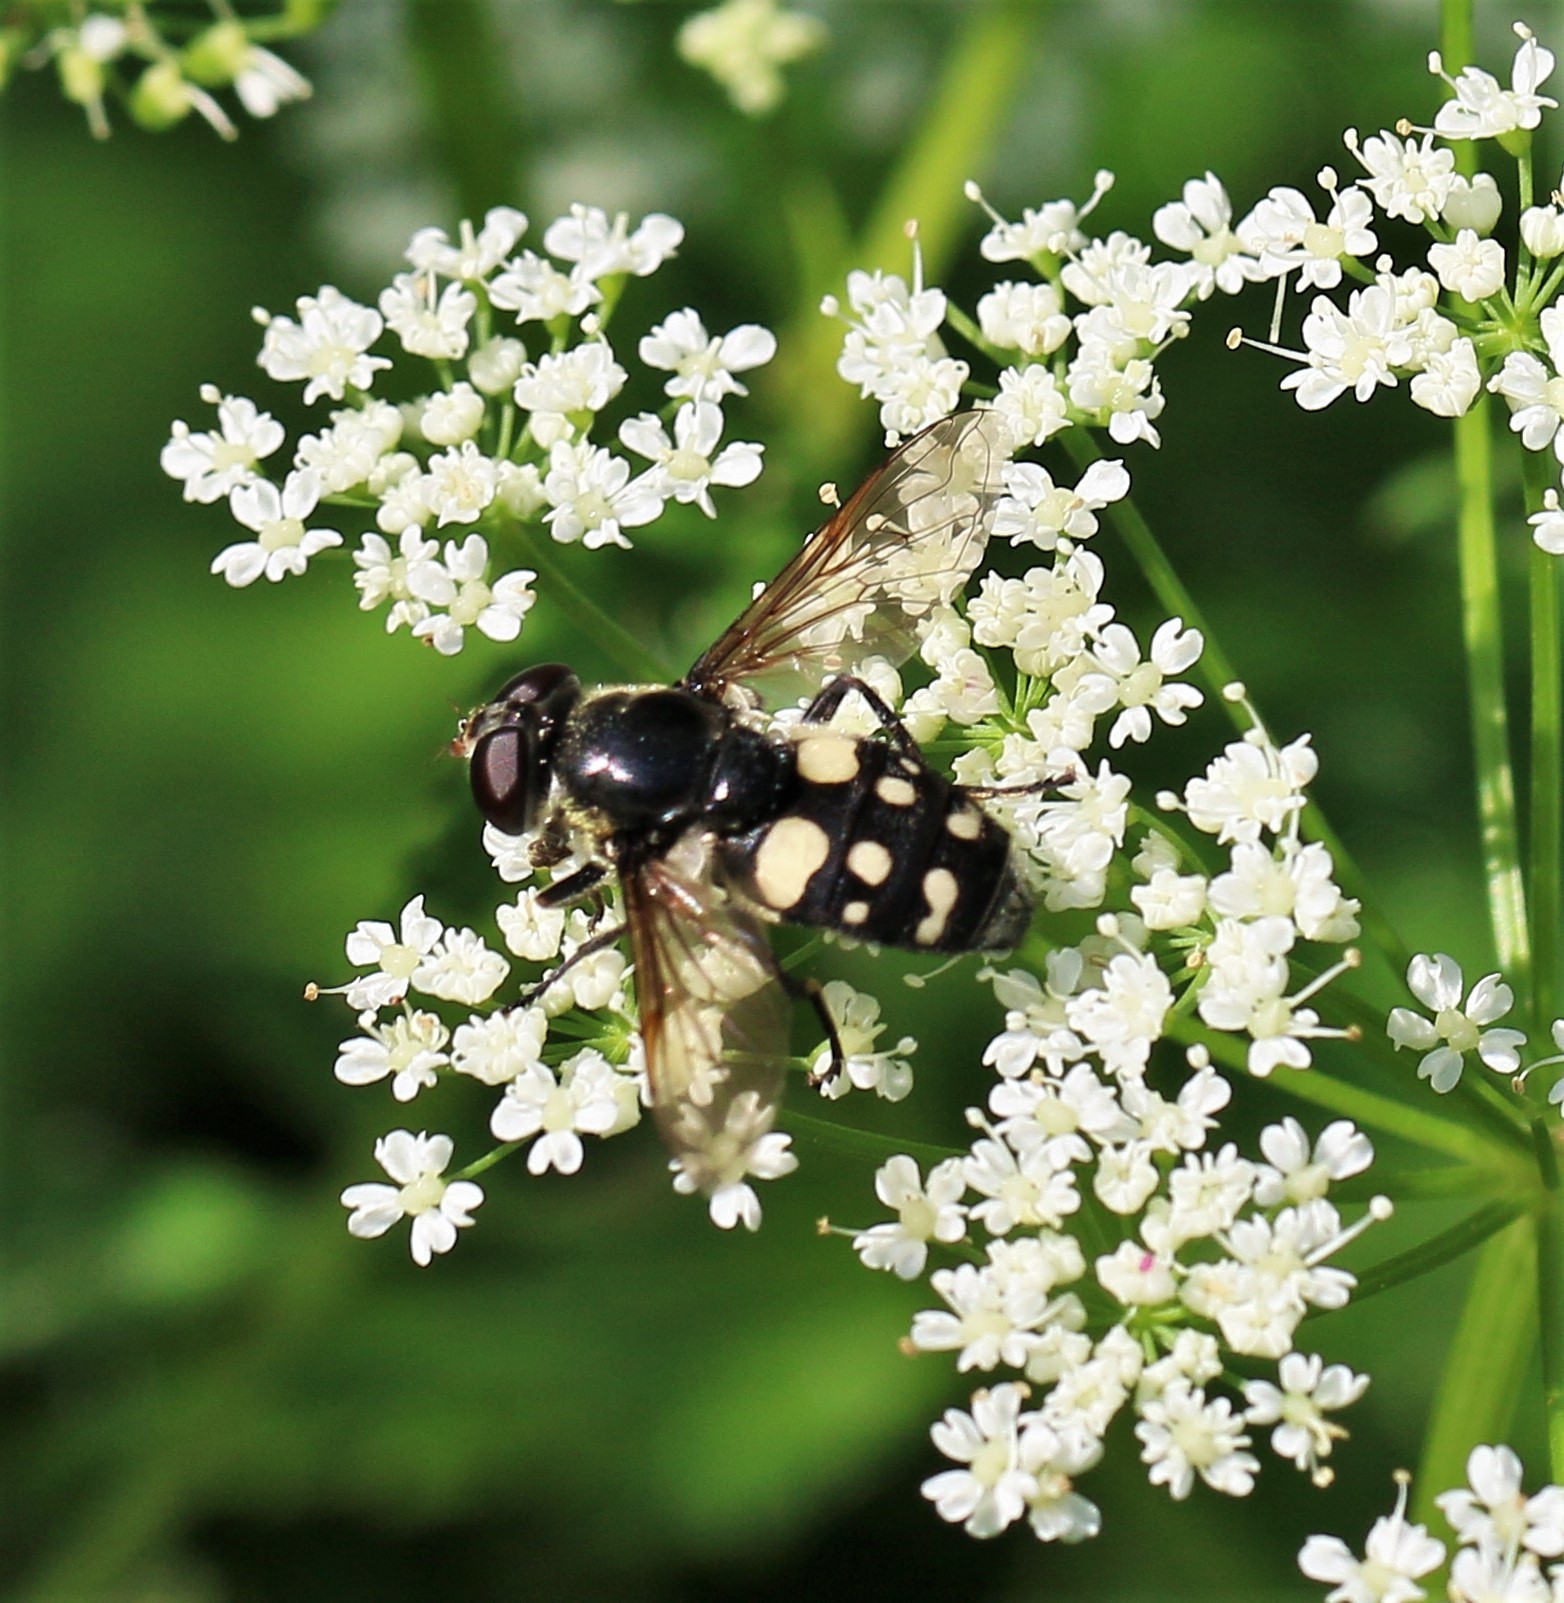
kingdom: Animalia
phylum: Arthropoda
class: Insecta
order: Diptera
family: Syrphidae
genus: Sericomyia
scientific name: Sericomyia lata
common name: White-spotted pond fly
